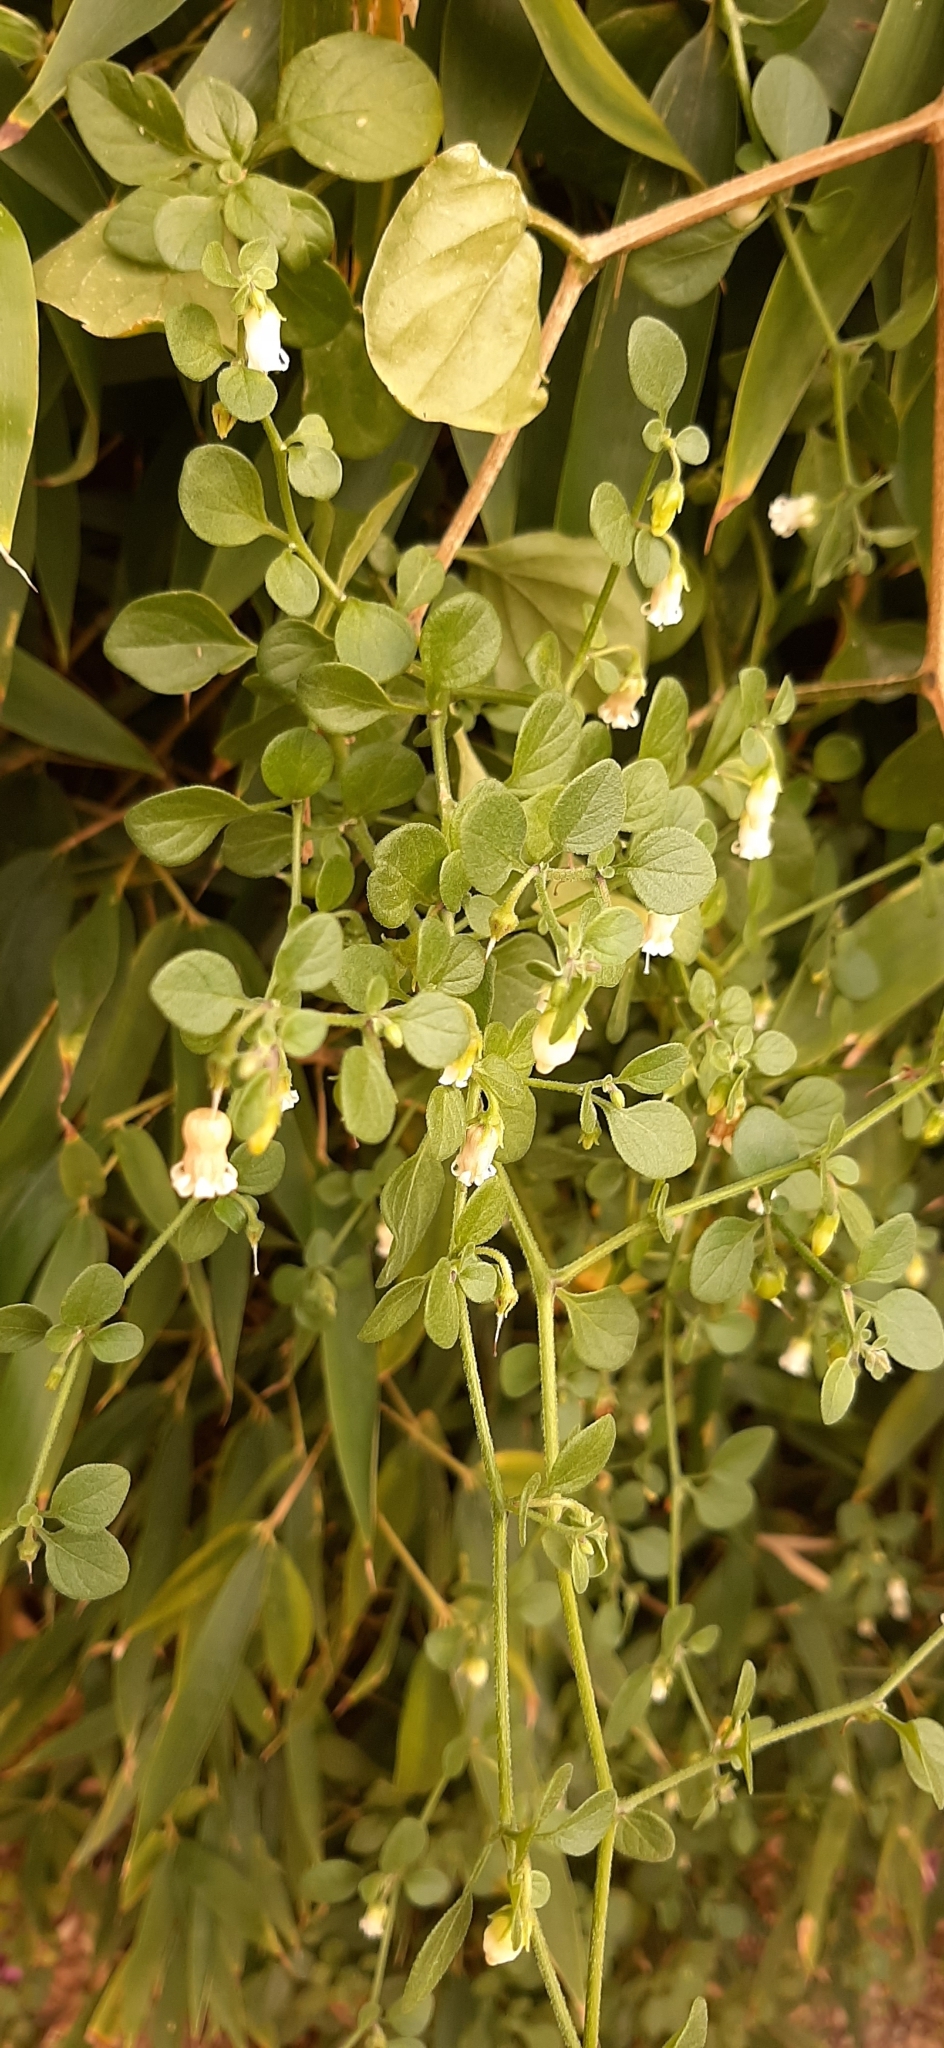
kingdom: Plantae
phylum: Tracheophyta
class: Magnoliopsida
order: Solanales
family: Solanaceae
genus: Salpichroa
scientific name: Salpichroa origanifolia
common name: Lily-of-the-valley-vine
